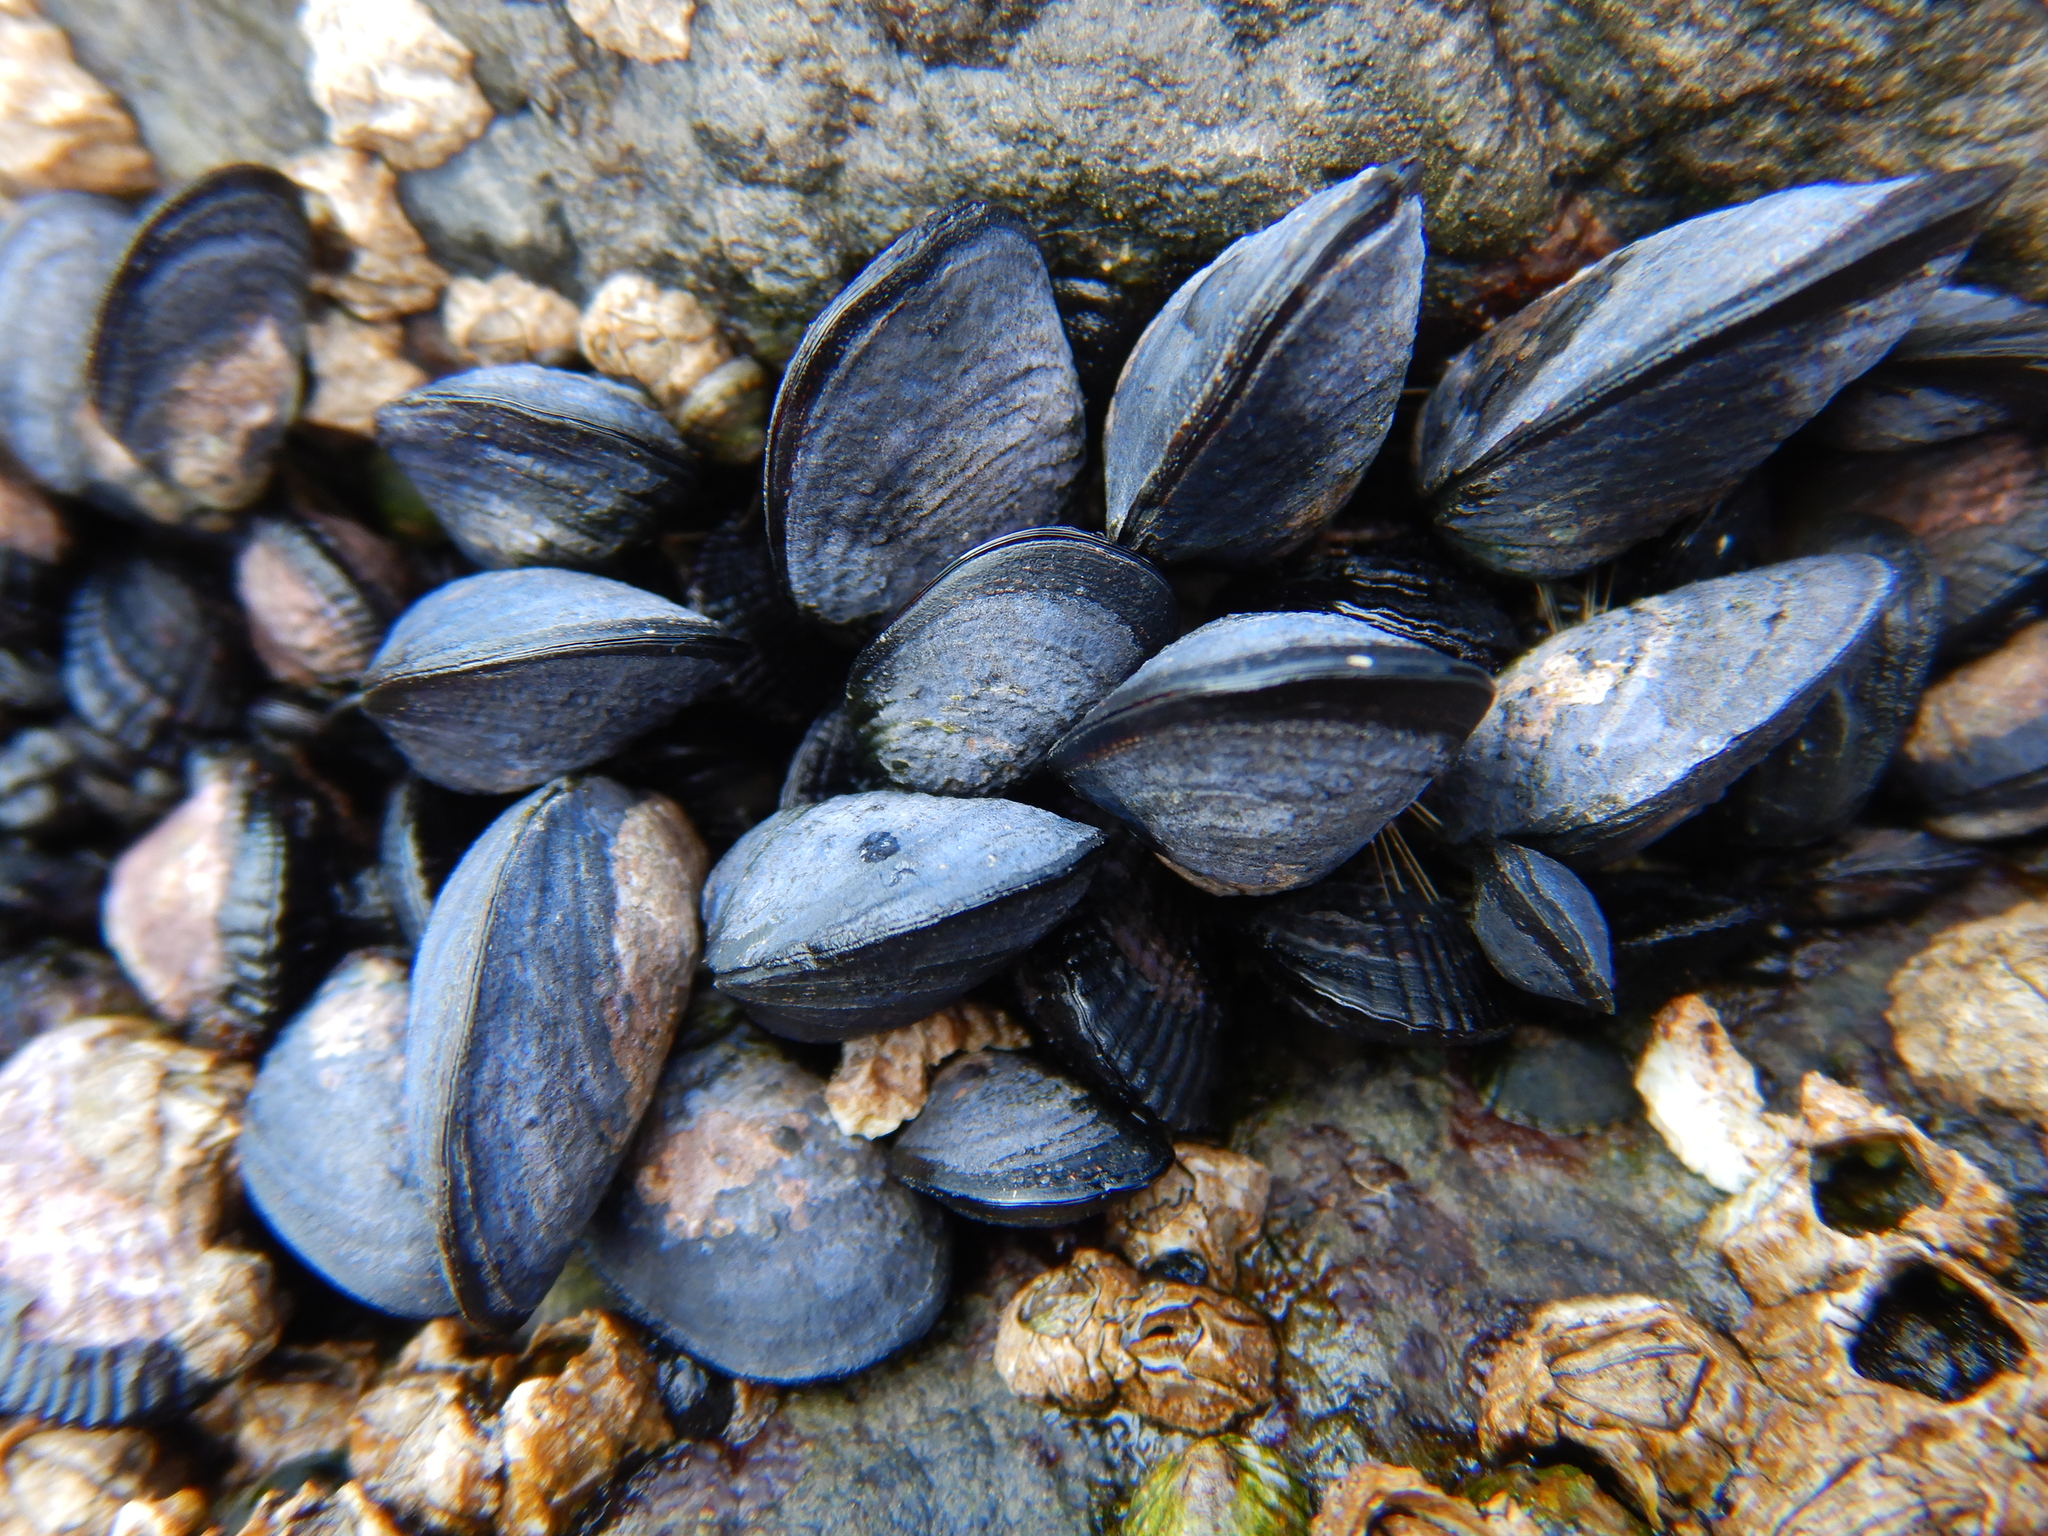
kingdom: Animalia
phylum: Mollusca
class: Bivalvia
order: Mytilida
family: Mytilidae
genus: Mytilus
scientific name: Mytilus chilensis
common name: Chilean mussel
